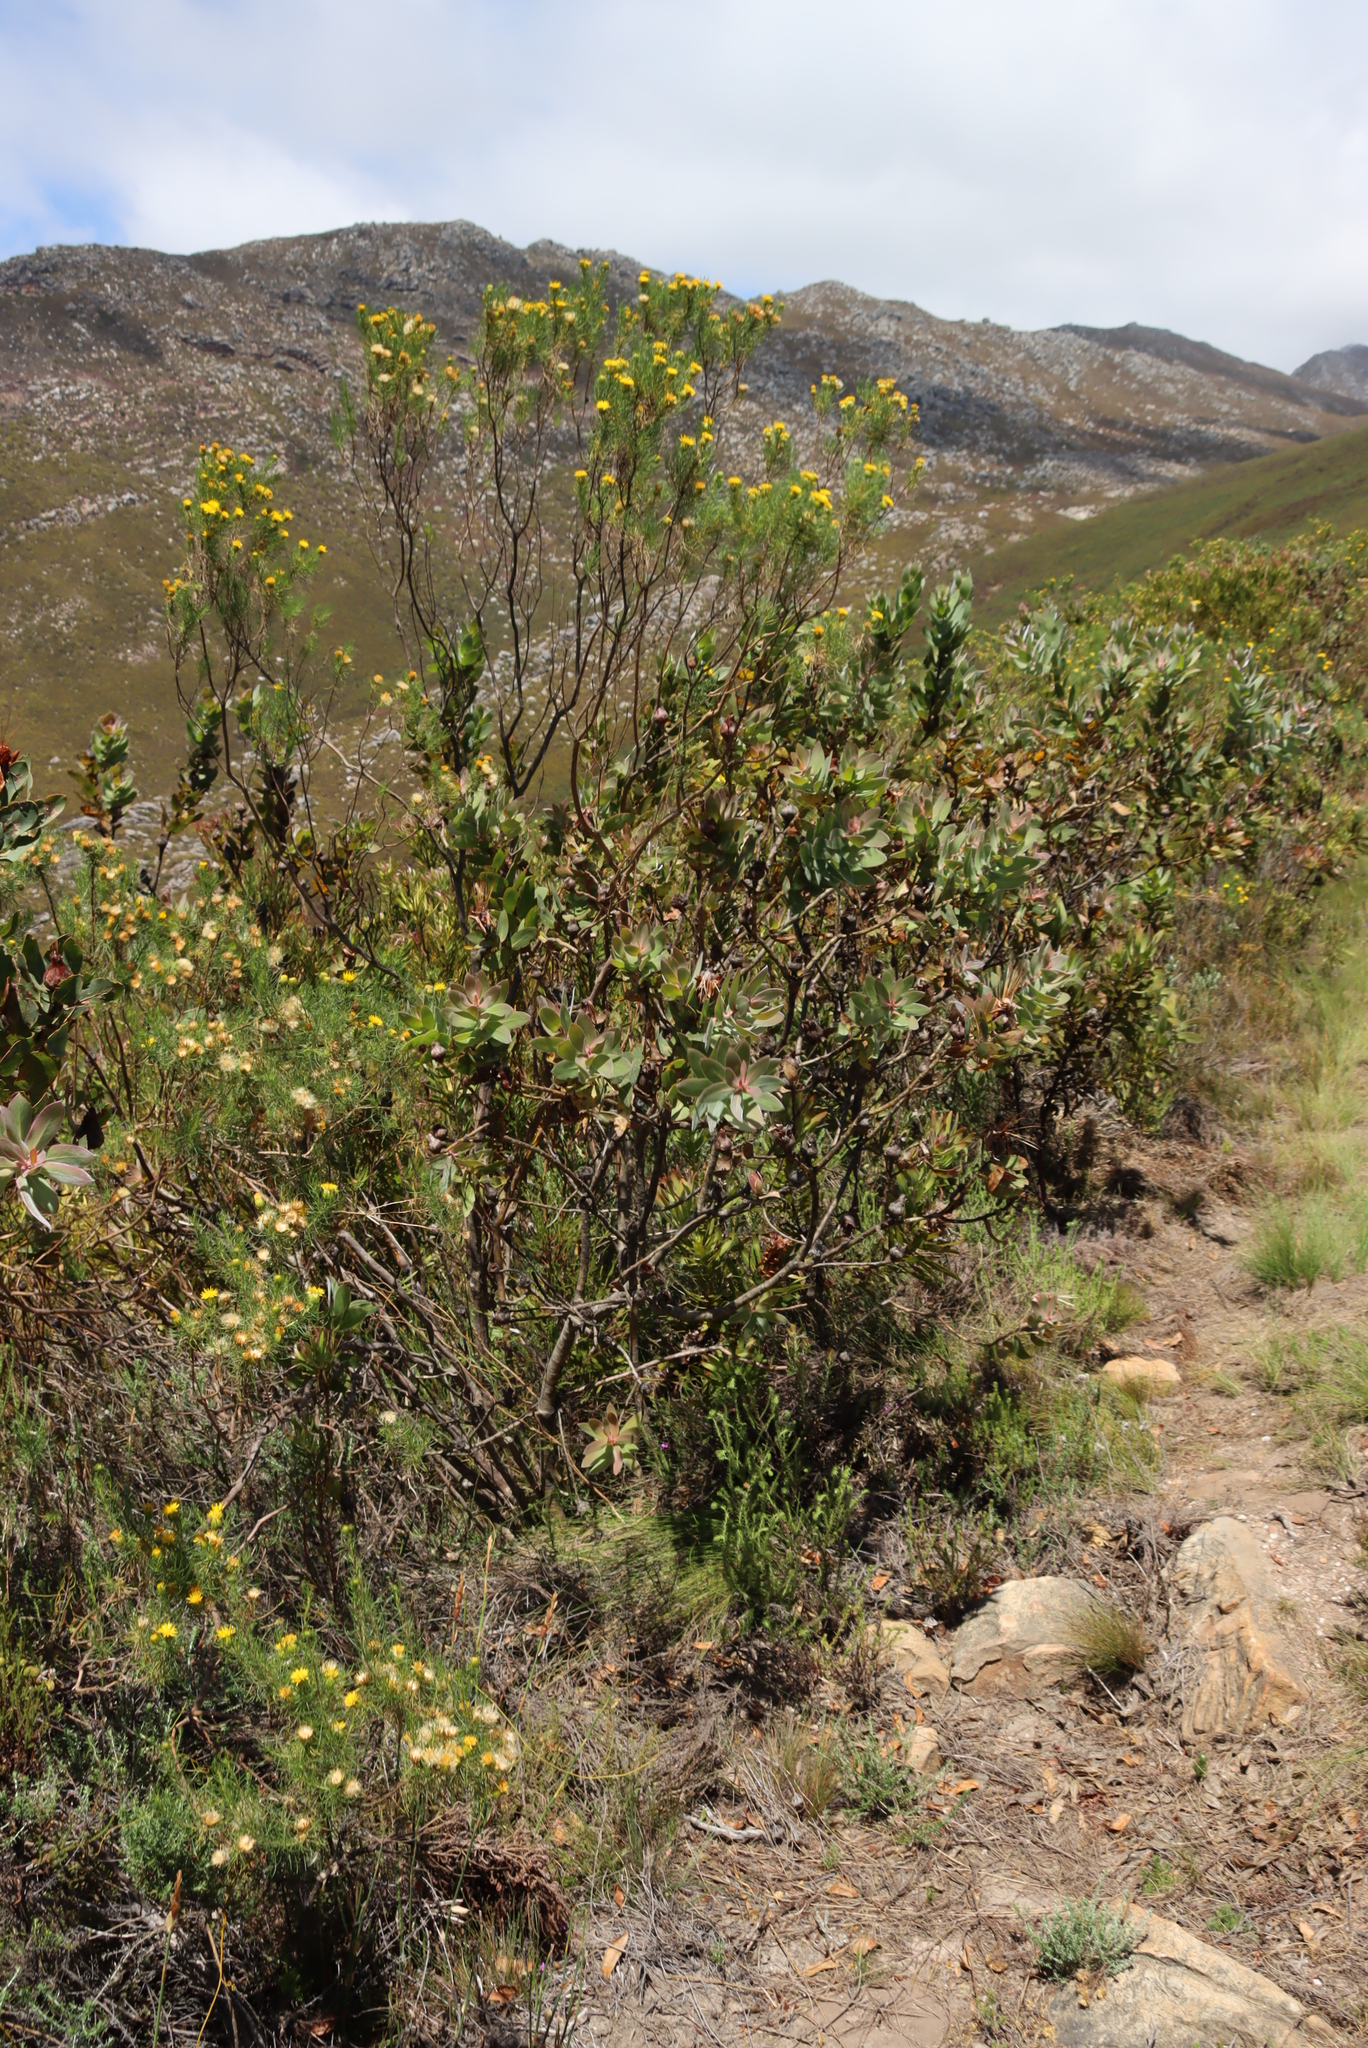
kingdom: Plantae
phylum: Tracheophyta
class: Magnoliopsida
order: Proteales
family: Proteaceae
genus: Protea
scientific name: Protea aurea
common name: Shuttlecock sugarbush
